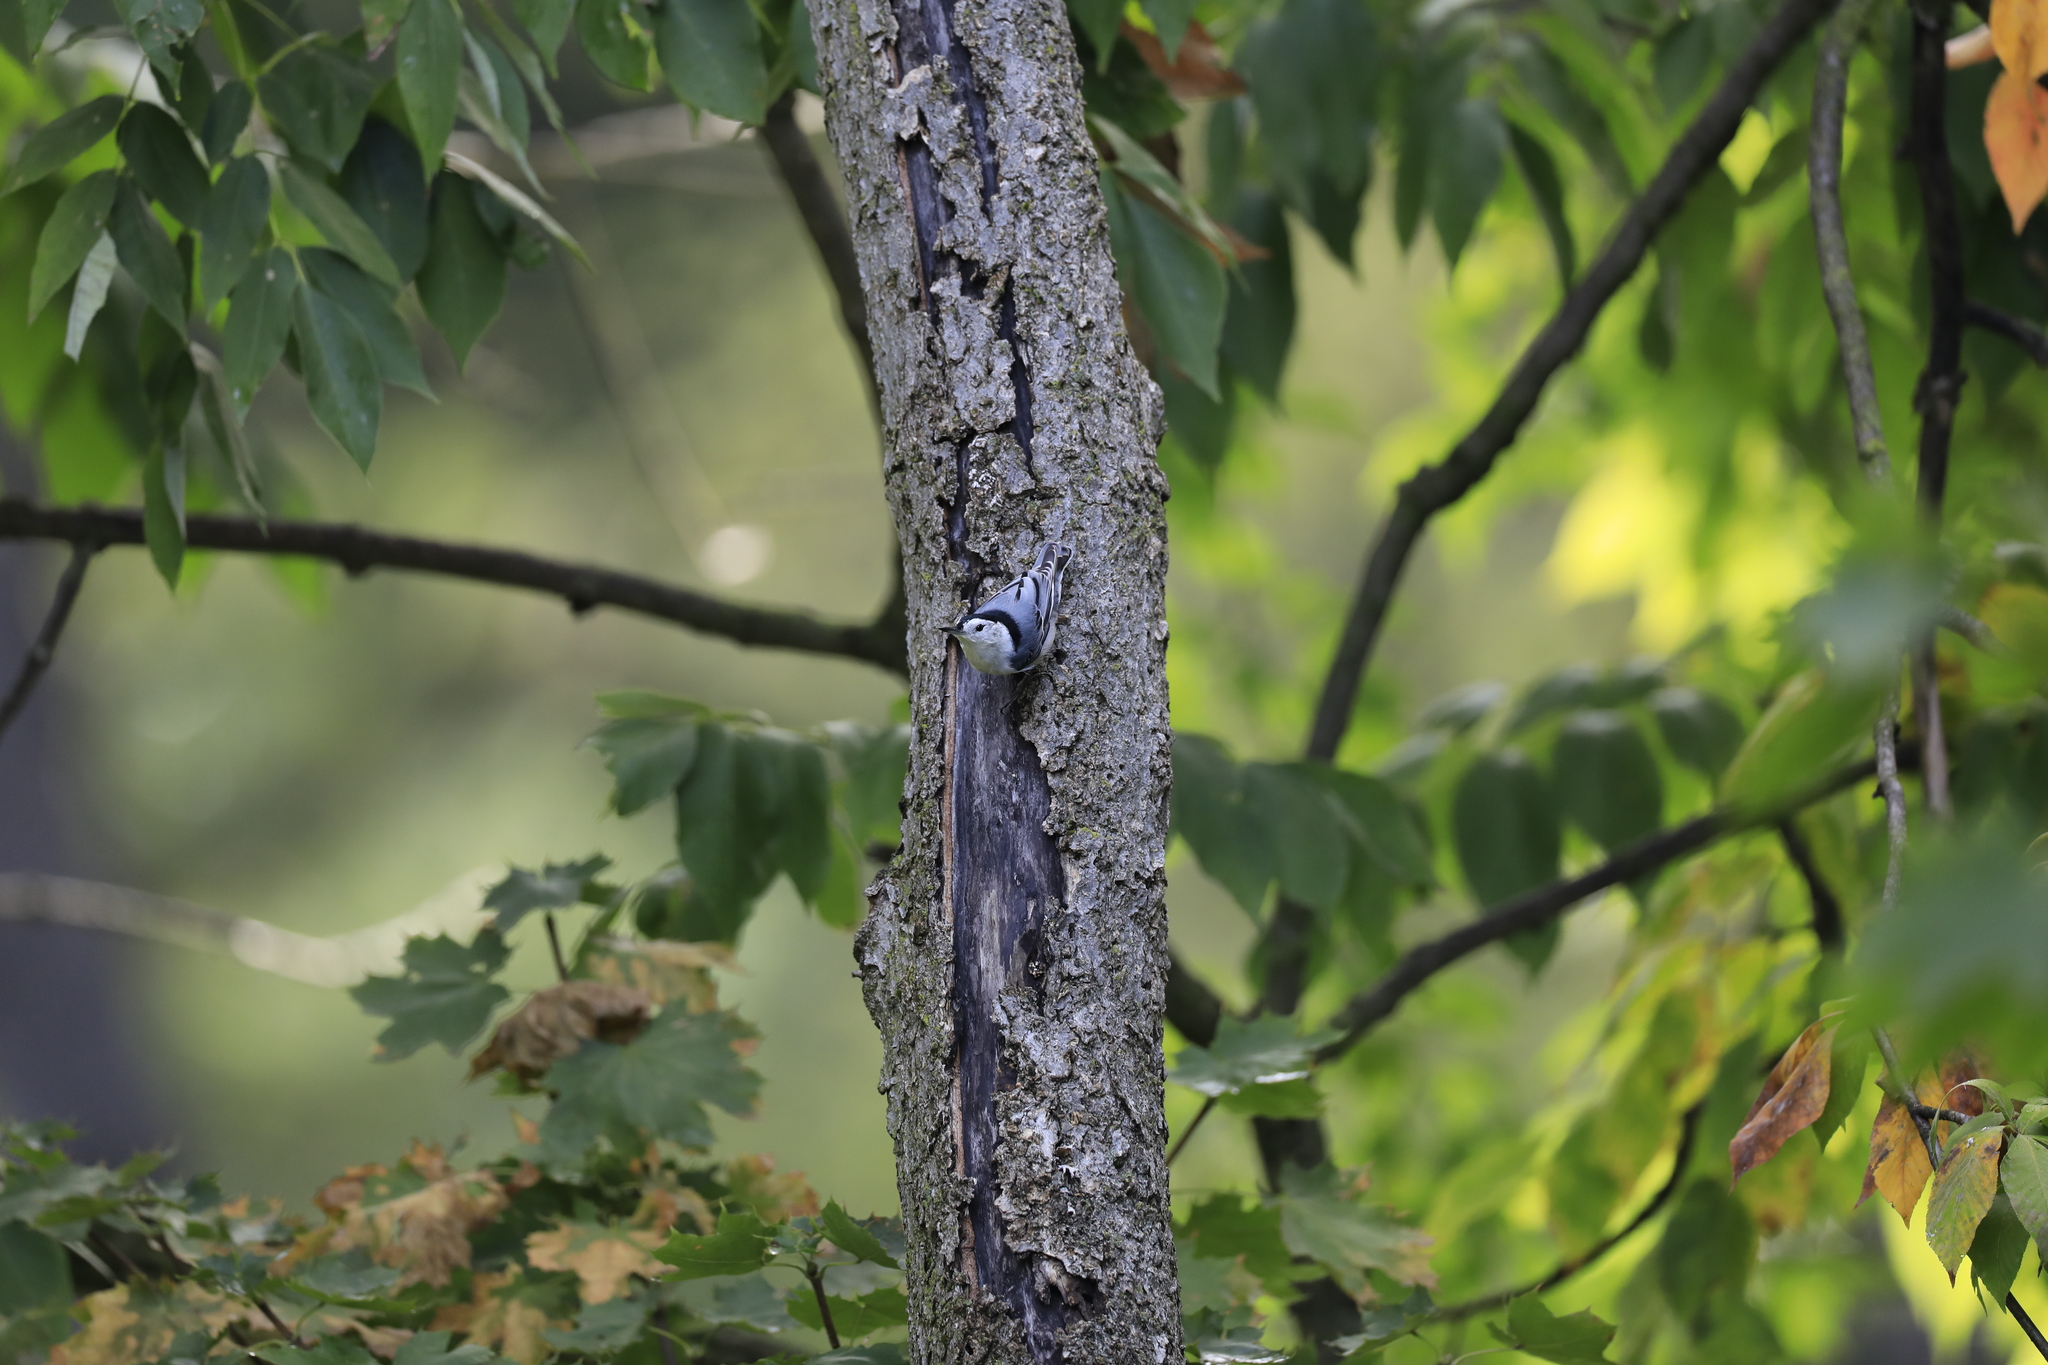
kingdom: Animalia
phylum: Chordata
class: Aves
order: Passeriformes
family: Sittidae
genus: Sitta
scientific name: Sitta carolinensis
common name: White-breasted nuthatch
